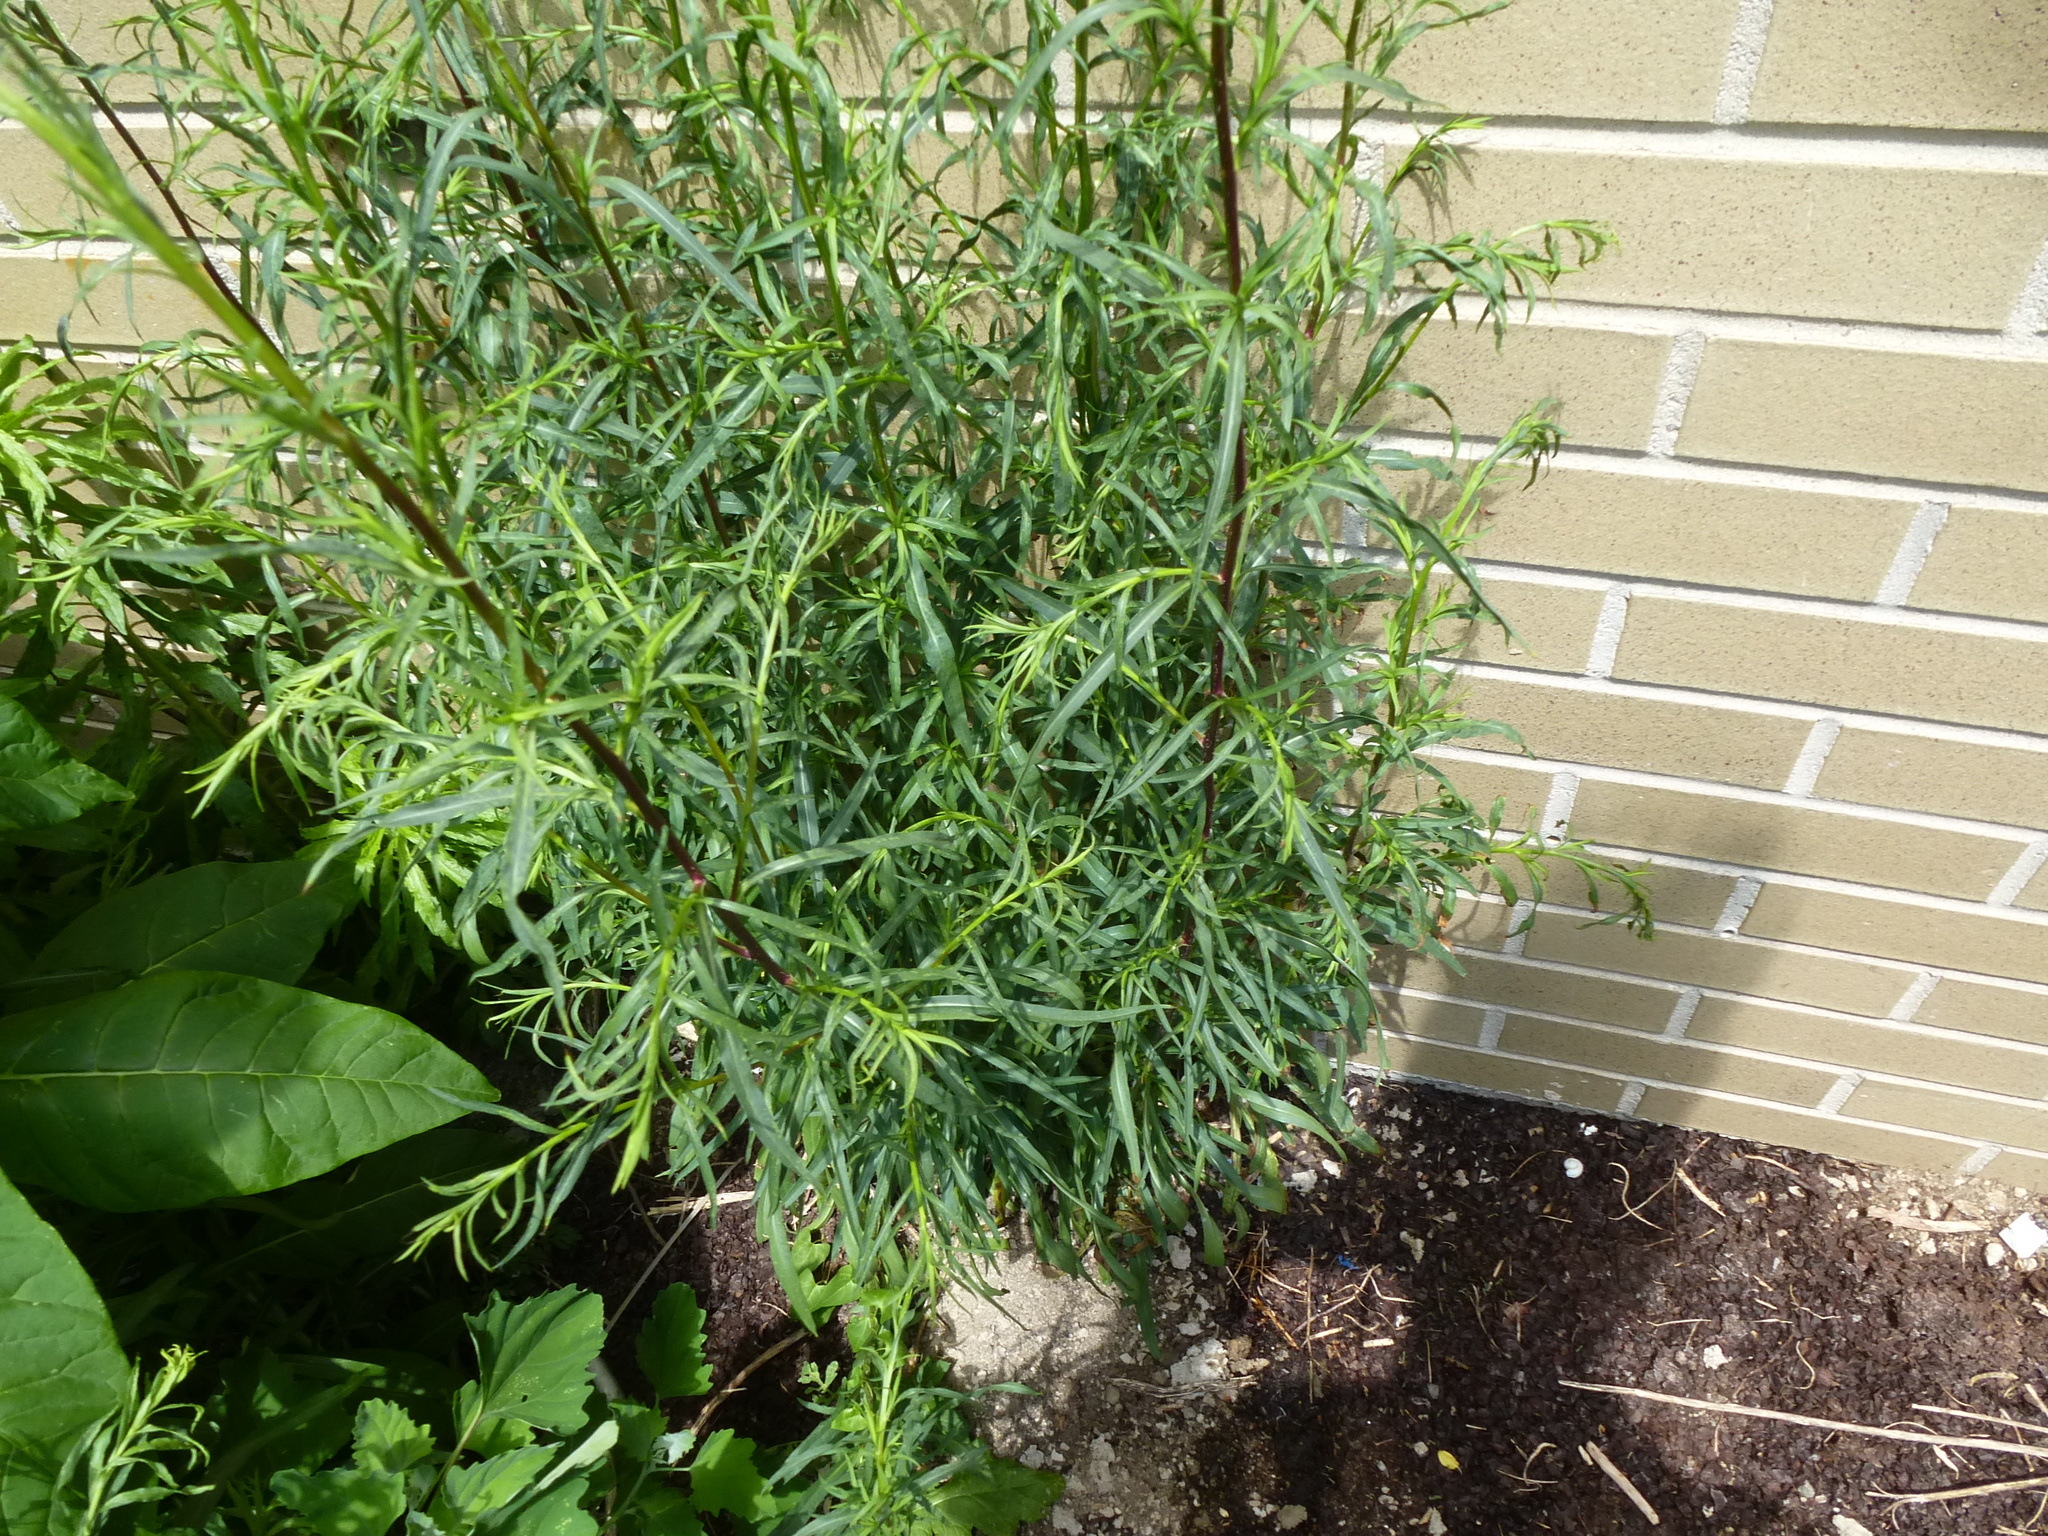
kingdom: Plantae
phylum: Tracheophyta
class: Magnoliopsida
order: Asterales
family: Asteraceae
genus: Artemisia
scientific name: Artemisia vulgaris
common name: Mugwort
